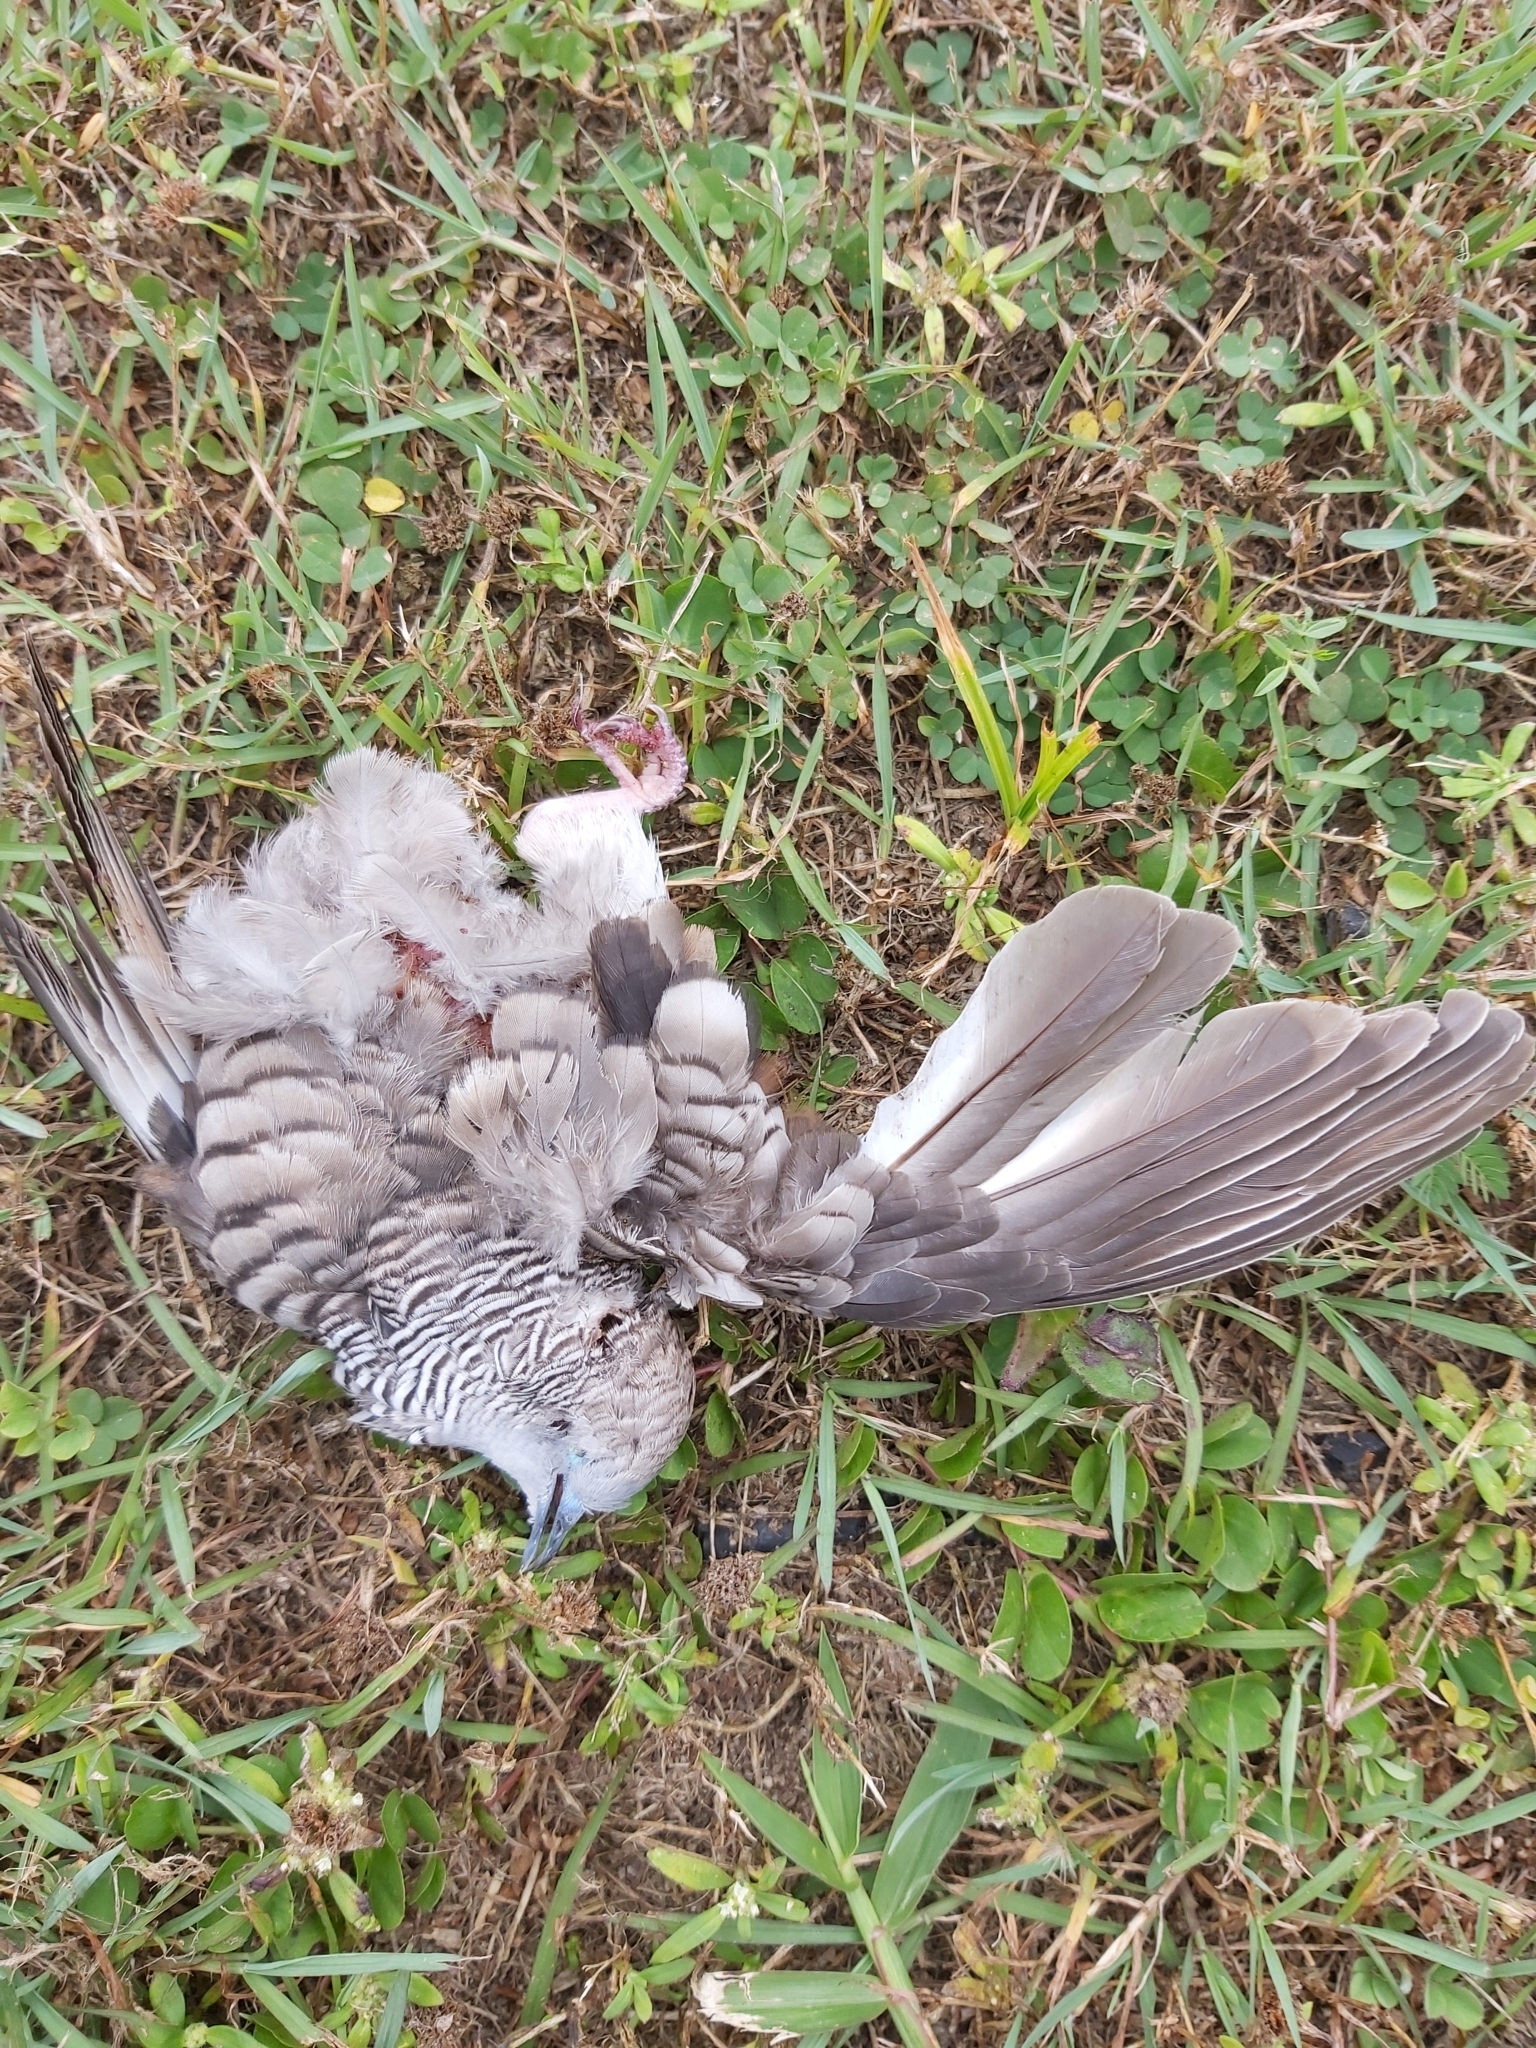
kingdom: Animalia
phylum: Chordata
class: Aves
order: Columbiformes
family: Columbidae
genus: Geopelia
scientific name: Geopelia placida
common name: Peaceful dove
